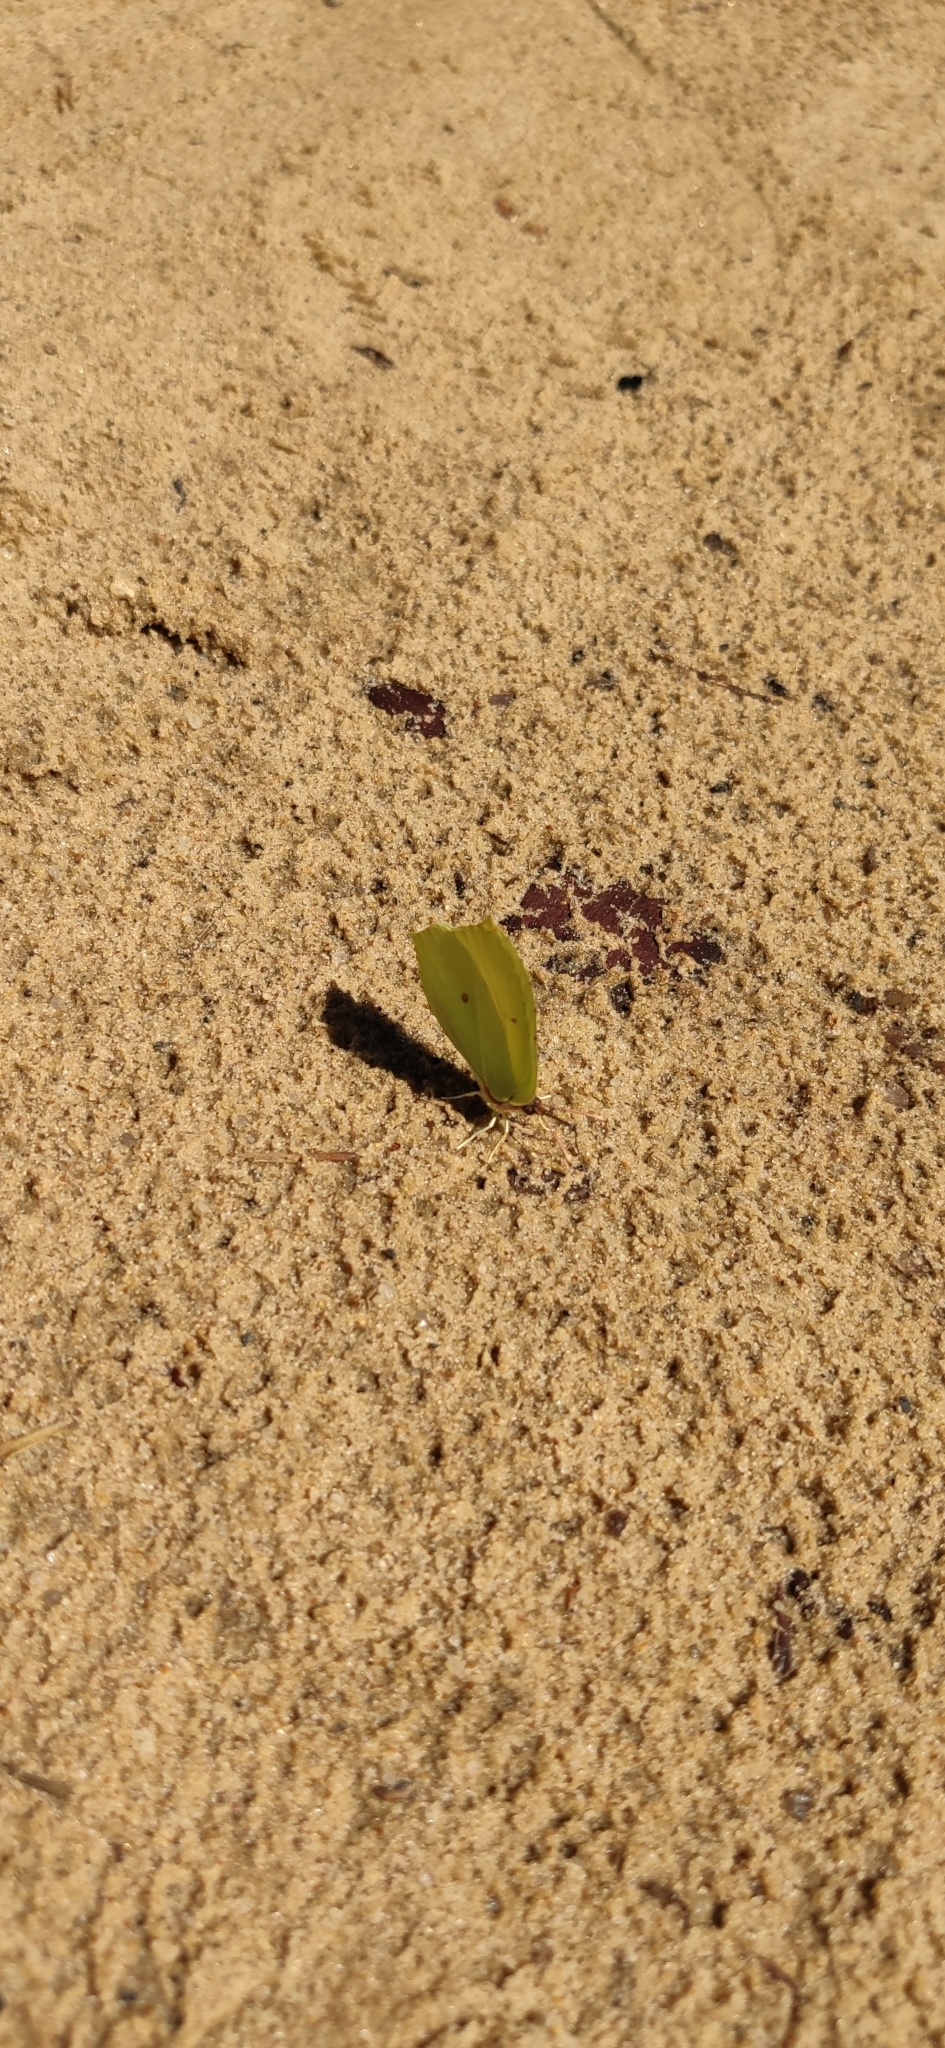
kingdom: Animalia
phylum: Arthropoda
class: Insecta
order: Lepidoptera
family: Pieridae
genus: Gonepteryx
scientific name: Gonepteryx rhamni
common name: Brimstone
